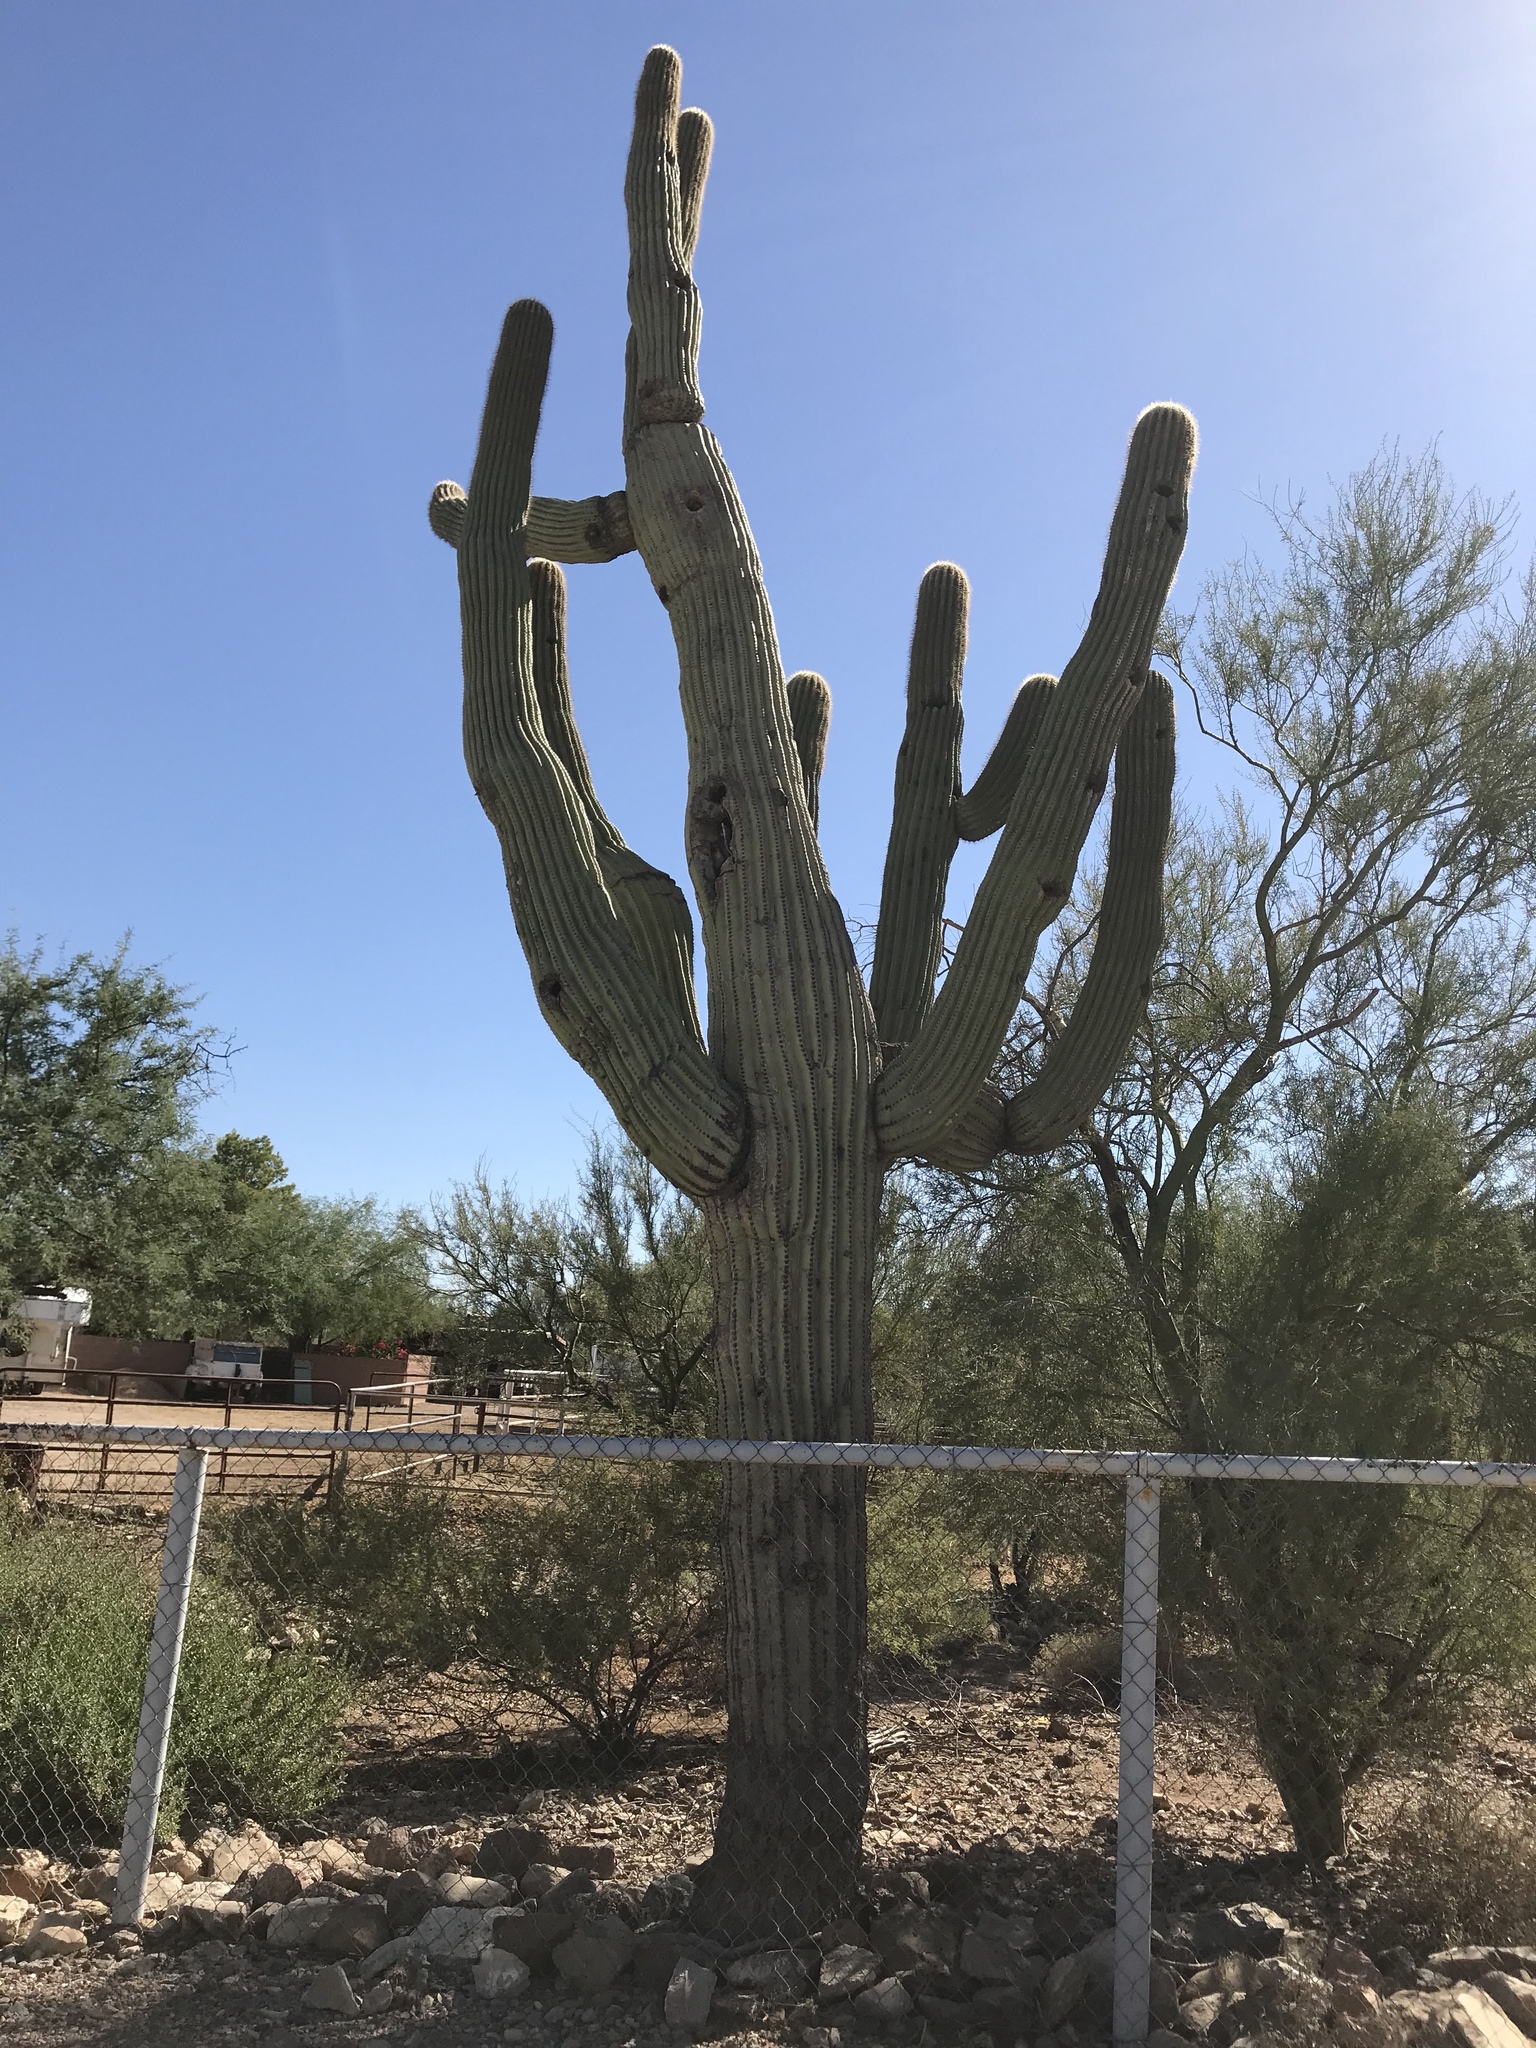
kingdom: Plantae
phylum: Tracheophyta
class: Magnoliopsida
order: Caryophyllales
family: Cactaceae
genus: Carnegiea
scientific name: Carnegiea gigantea
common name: Saguaro
